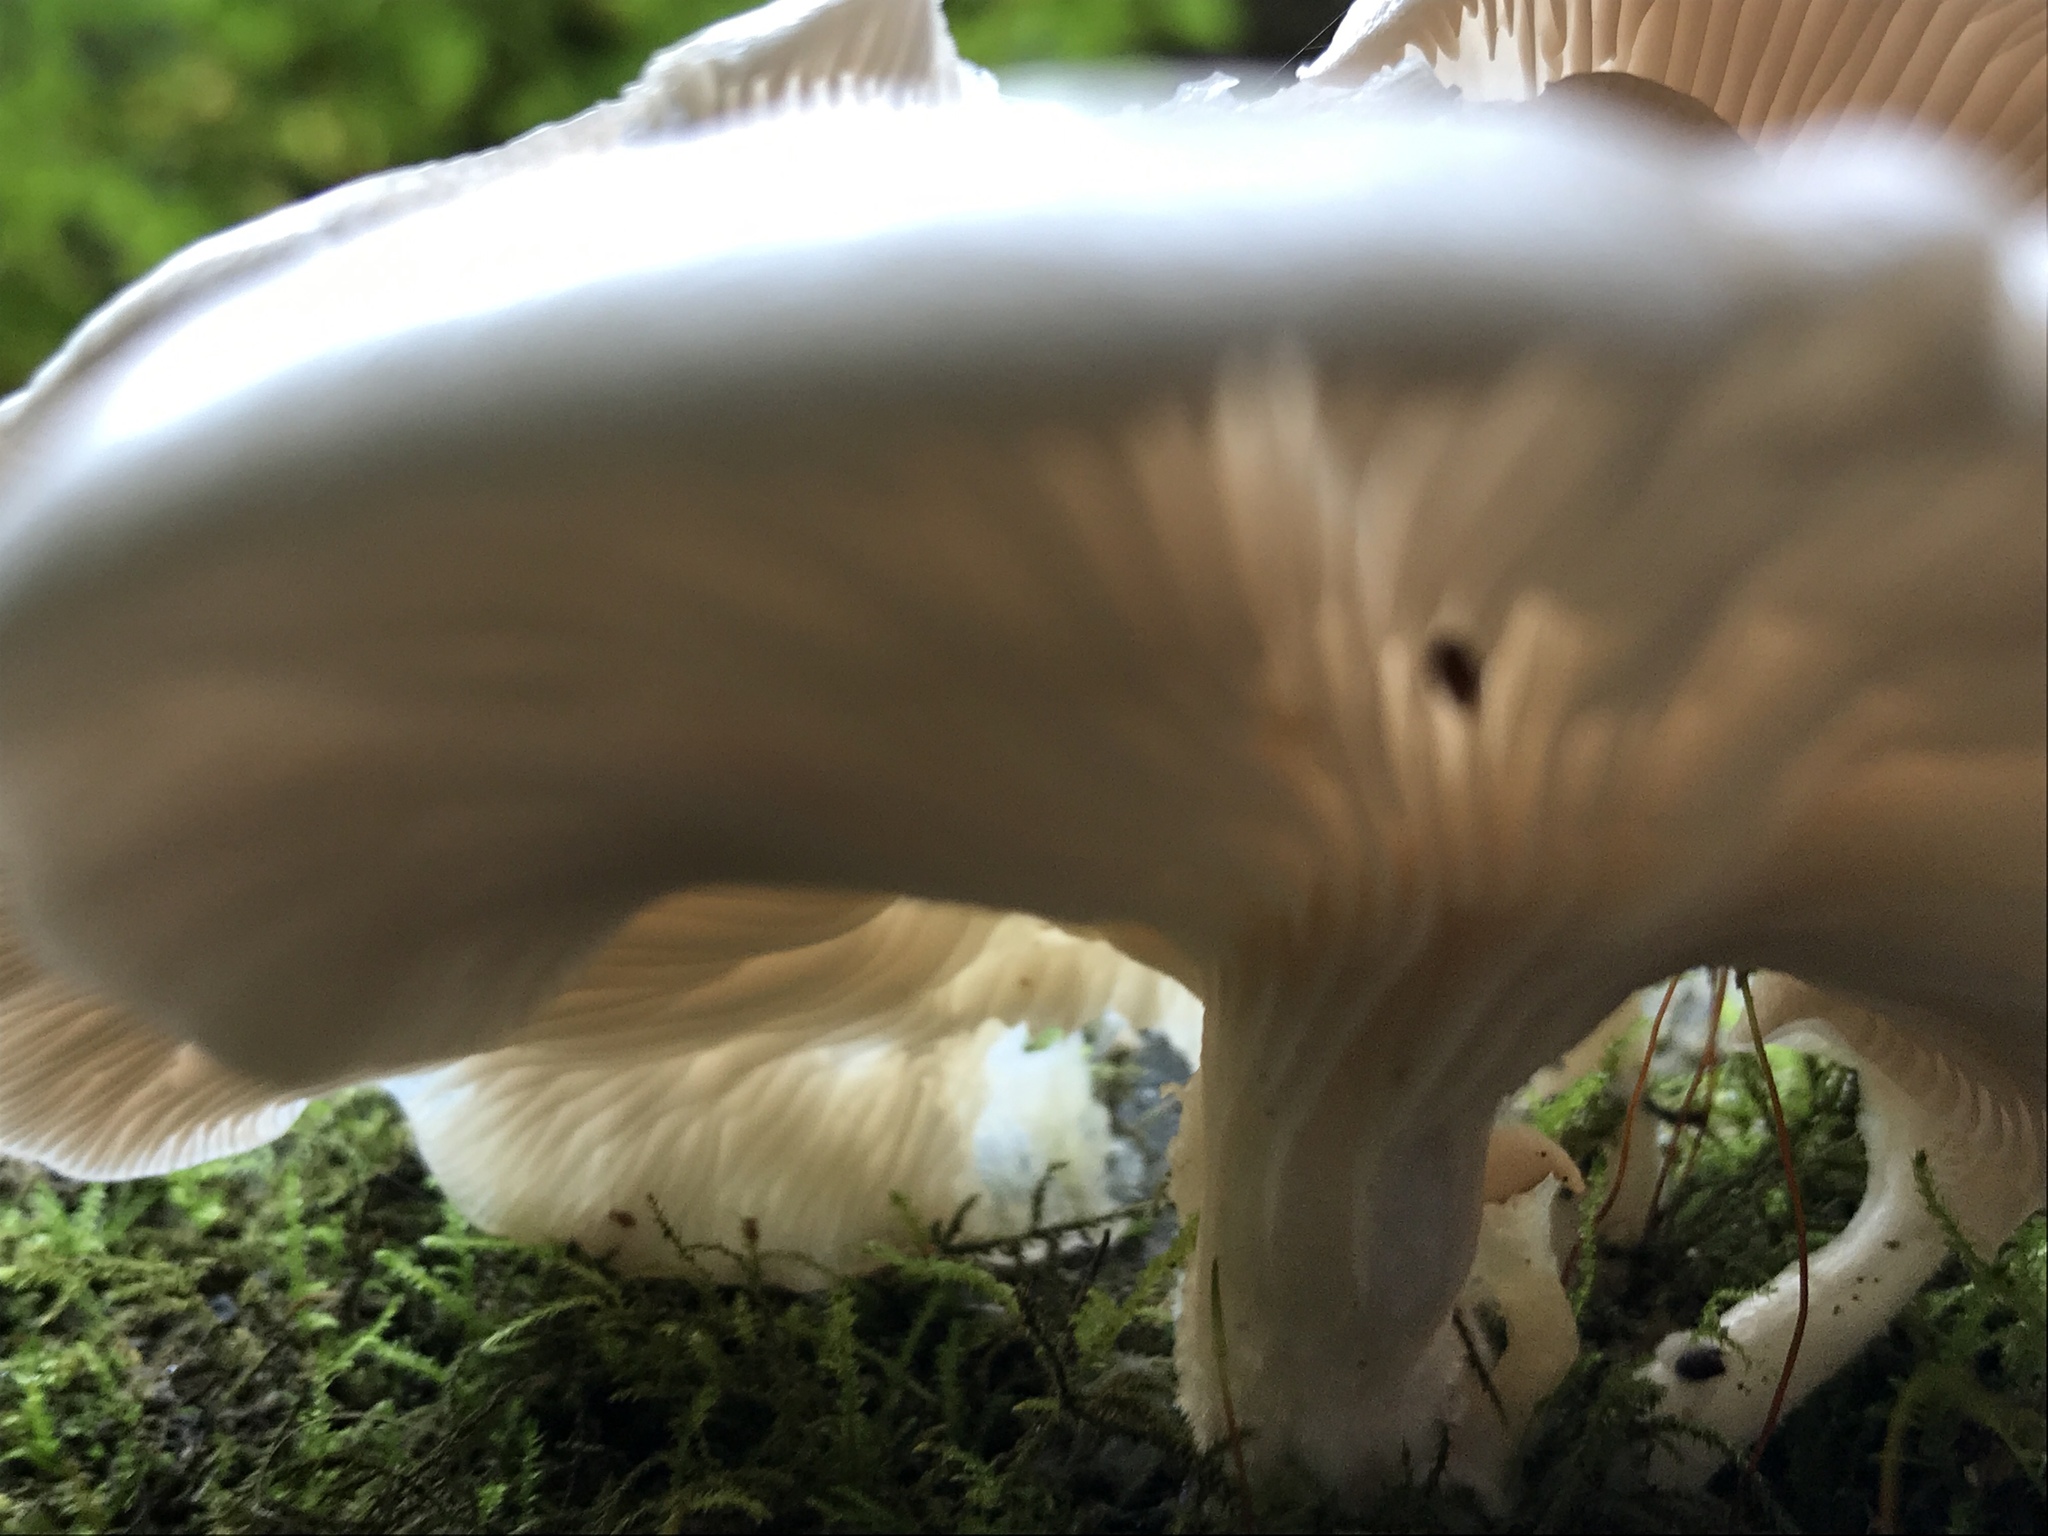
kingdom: Fungi
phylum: Basidiomycota
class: Agaricomycetes
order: Agaricales
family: Pleurotaceae
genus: Pleurotus
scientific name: Pleurotus ostreatus
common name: Oyster mushroom
